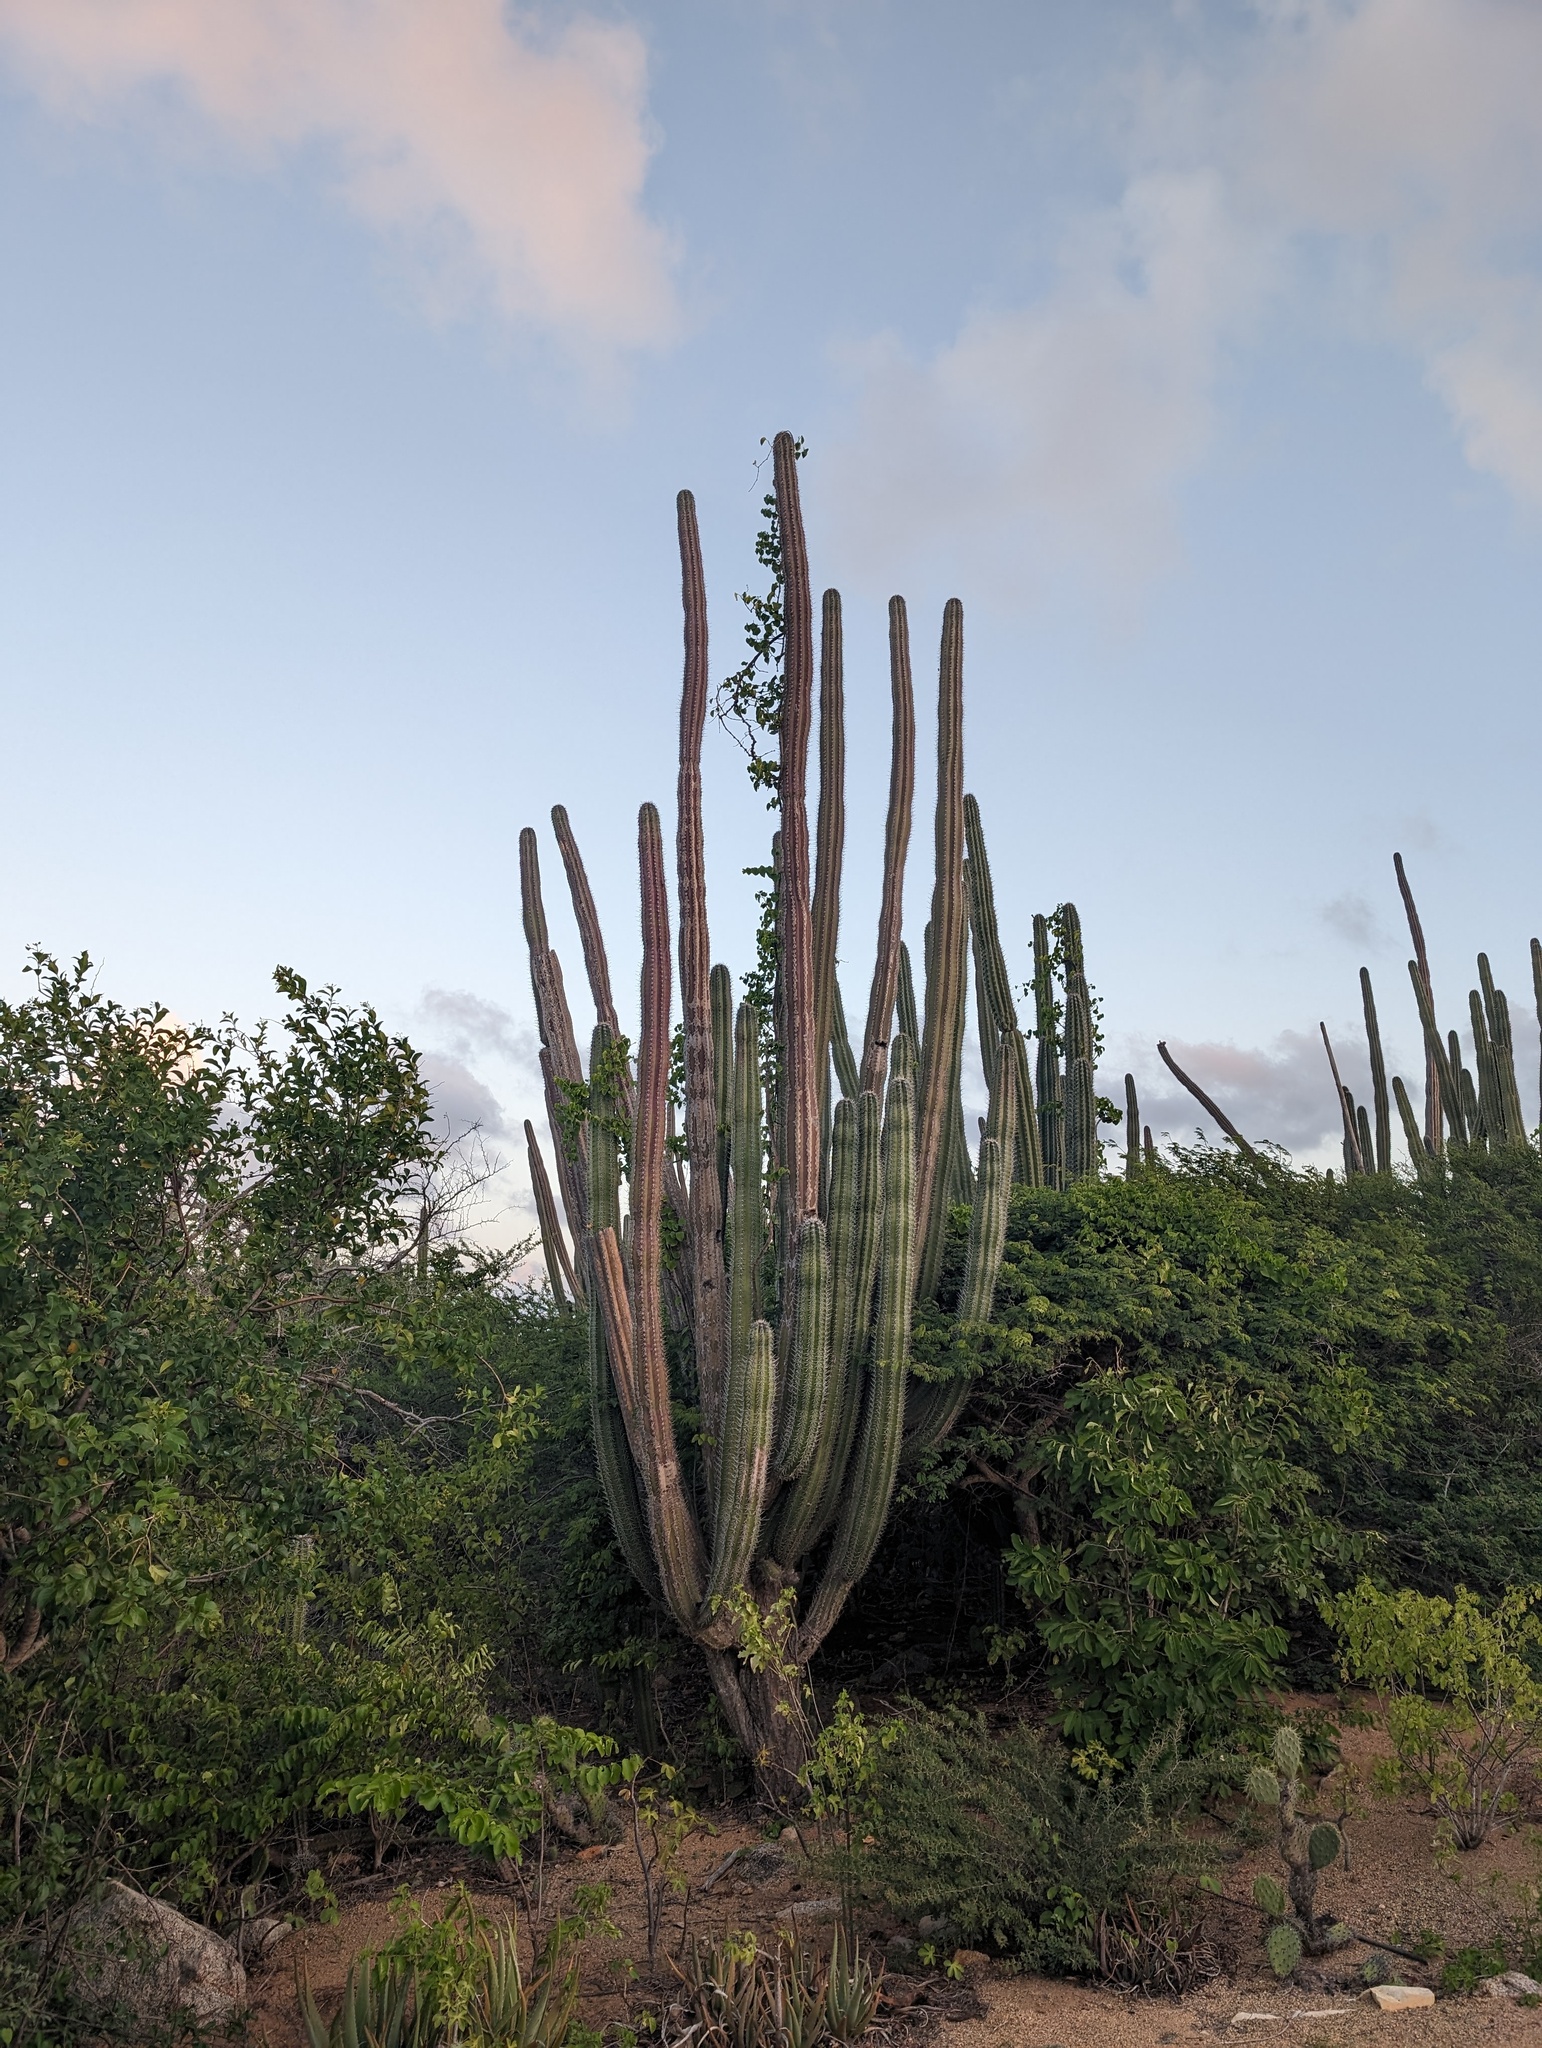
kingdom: Plantae
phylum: Tracheophyta
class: Magnoliopsida
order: Caryophyllales
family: Cactaceae
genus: Stenocereus
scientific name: Stenocereus griseus
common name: Tall candelabra cactus
